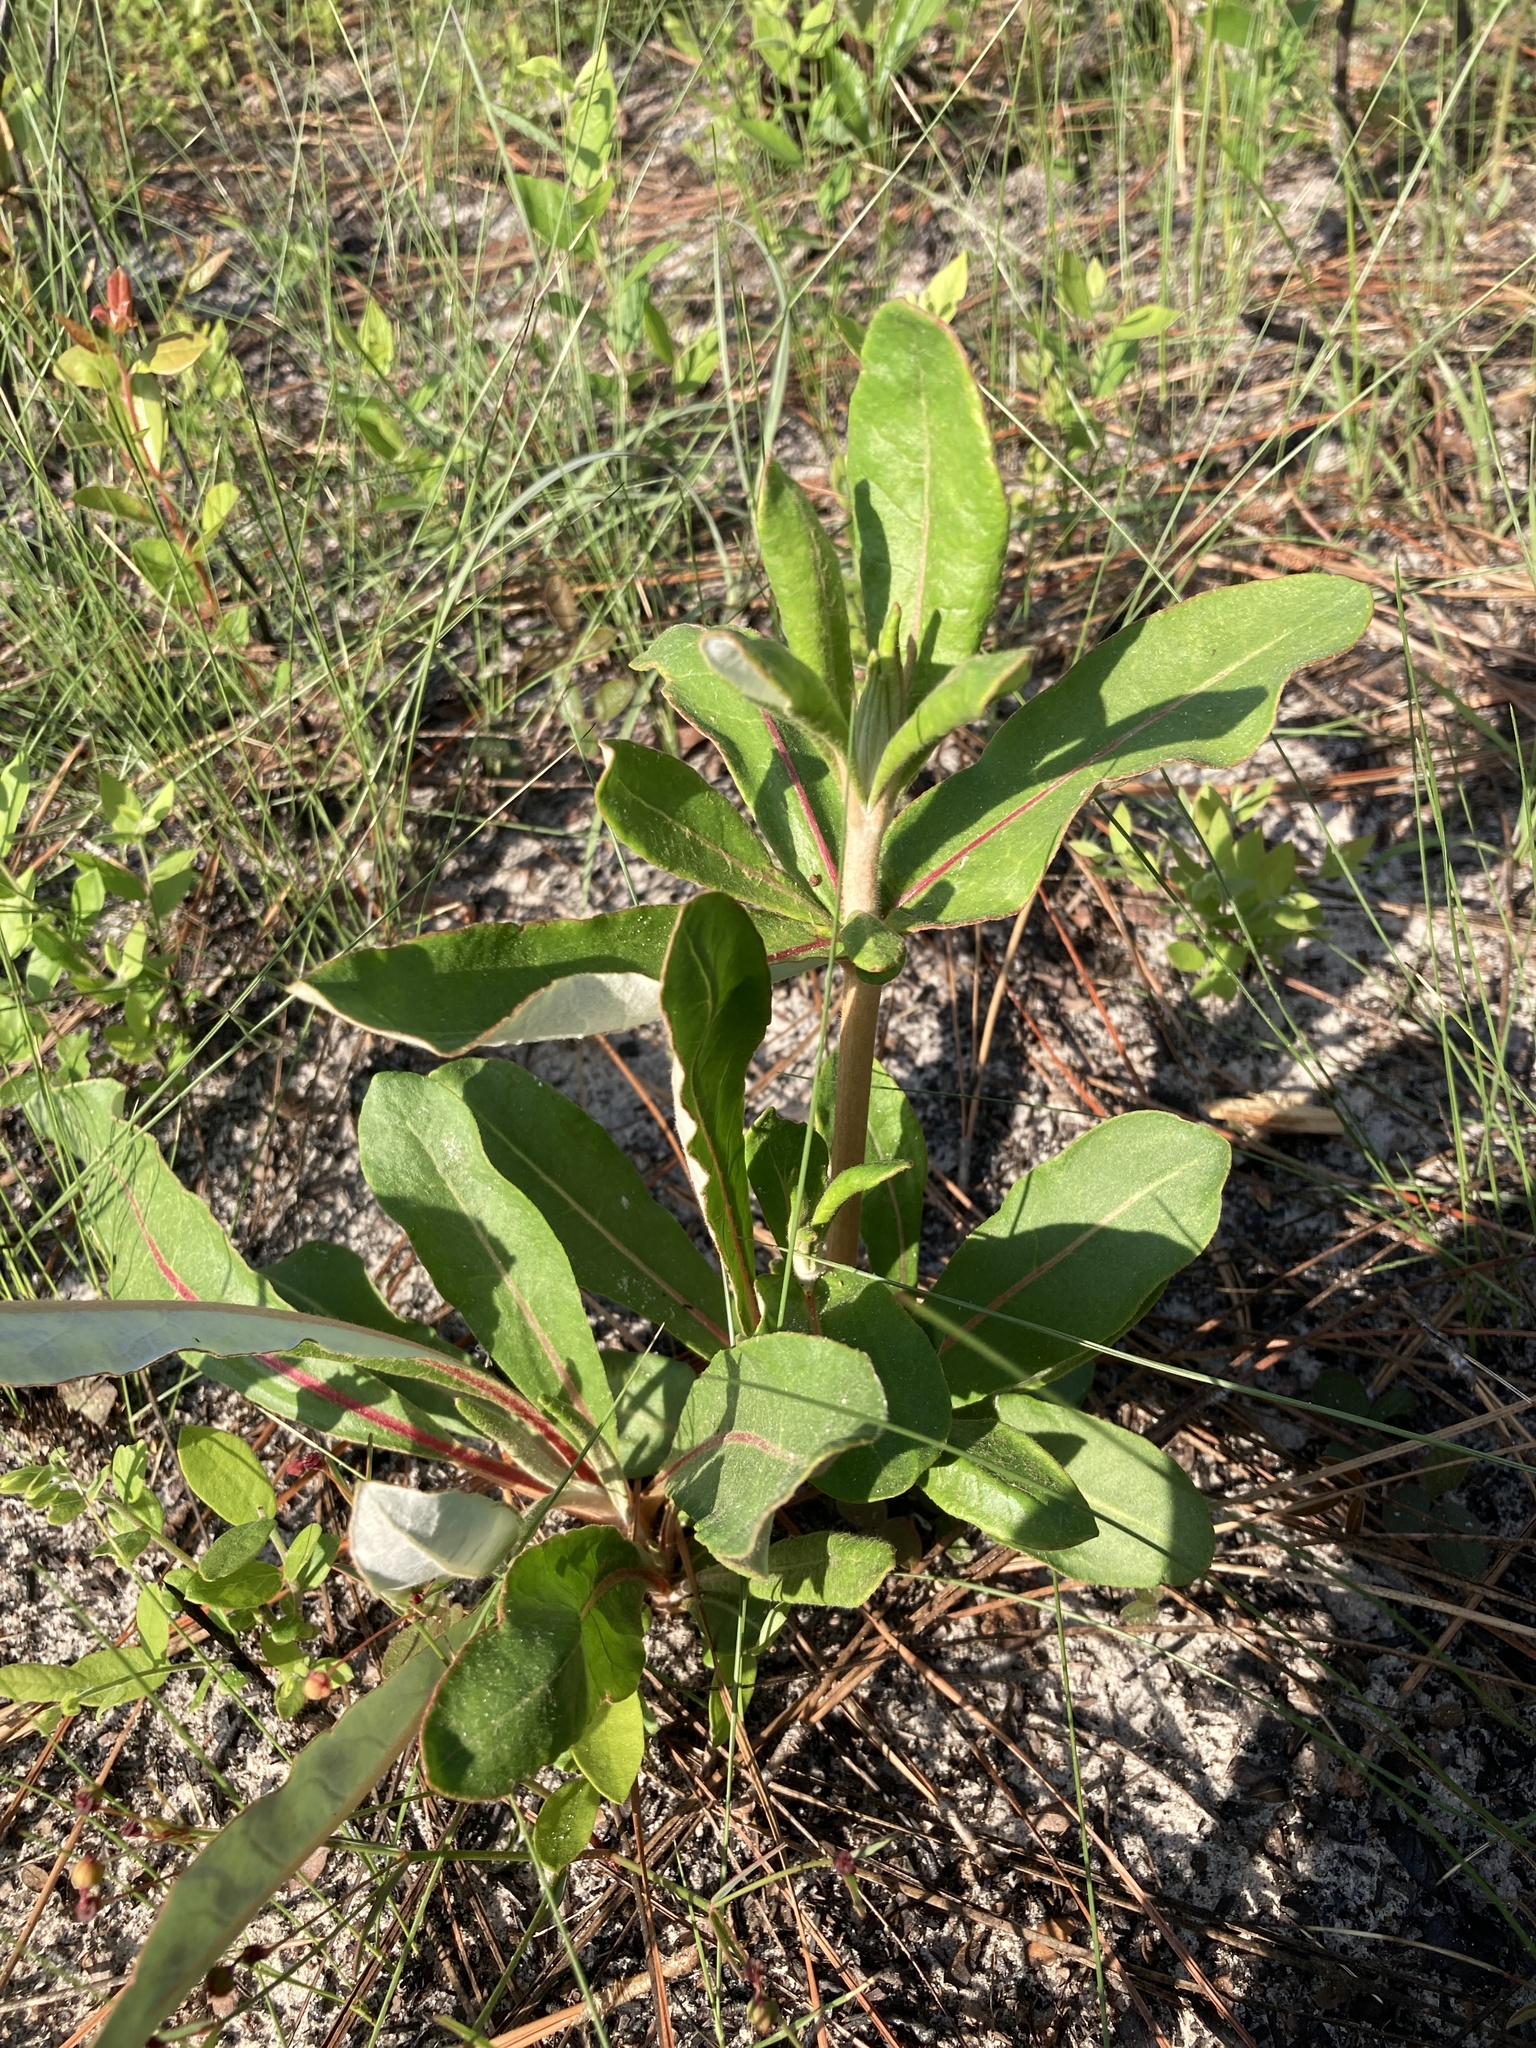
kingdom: Plantae
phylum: Tracheophyta
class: Magnoliopsida
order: Caryophyllales
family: Polygonaceae
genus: Eriogonum
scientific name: Eriogonum tomentosum
